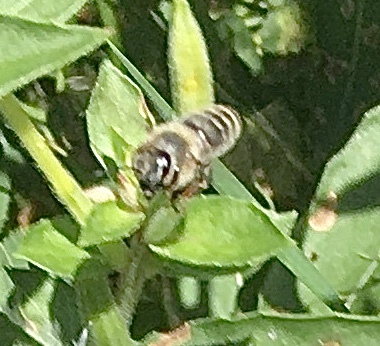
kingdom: Animalia
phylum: Arthropoda
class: Insecta
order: Hymenoptera
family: Apidae
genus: Apis
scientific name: Apis mellifera
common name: Honey bee
